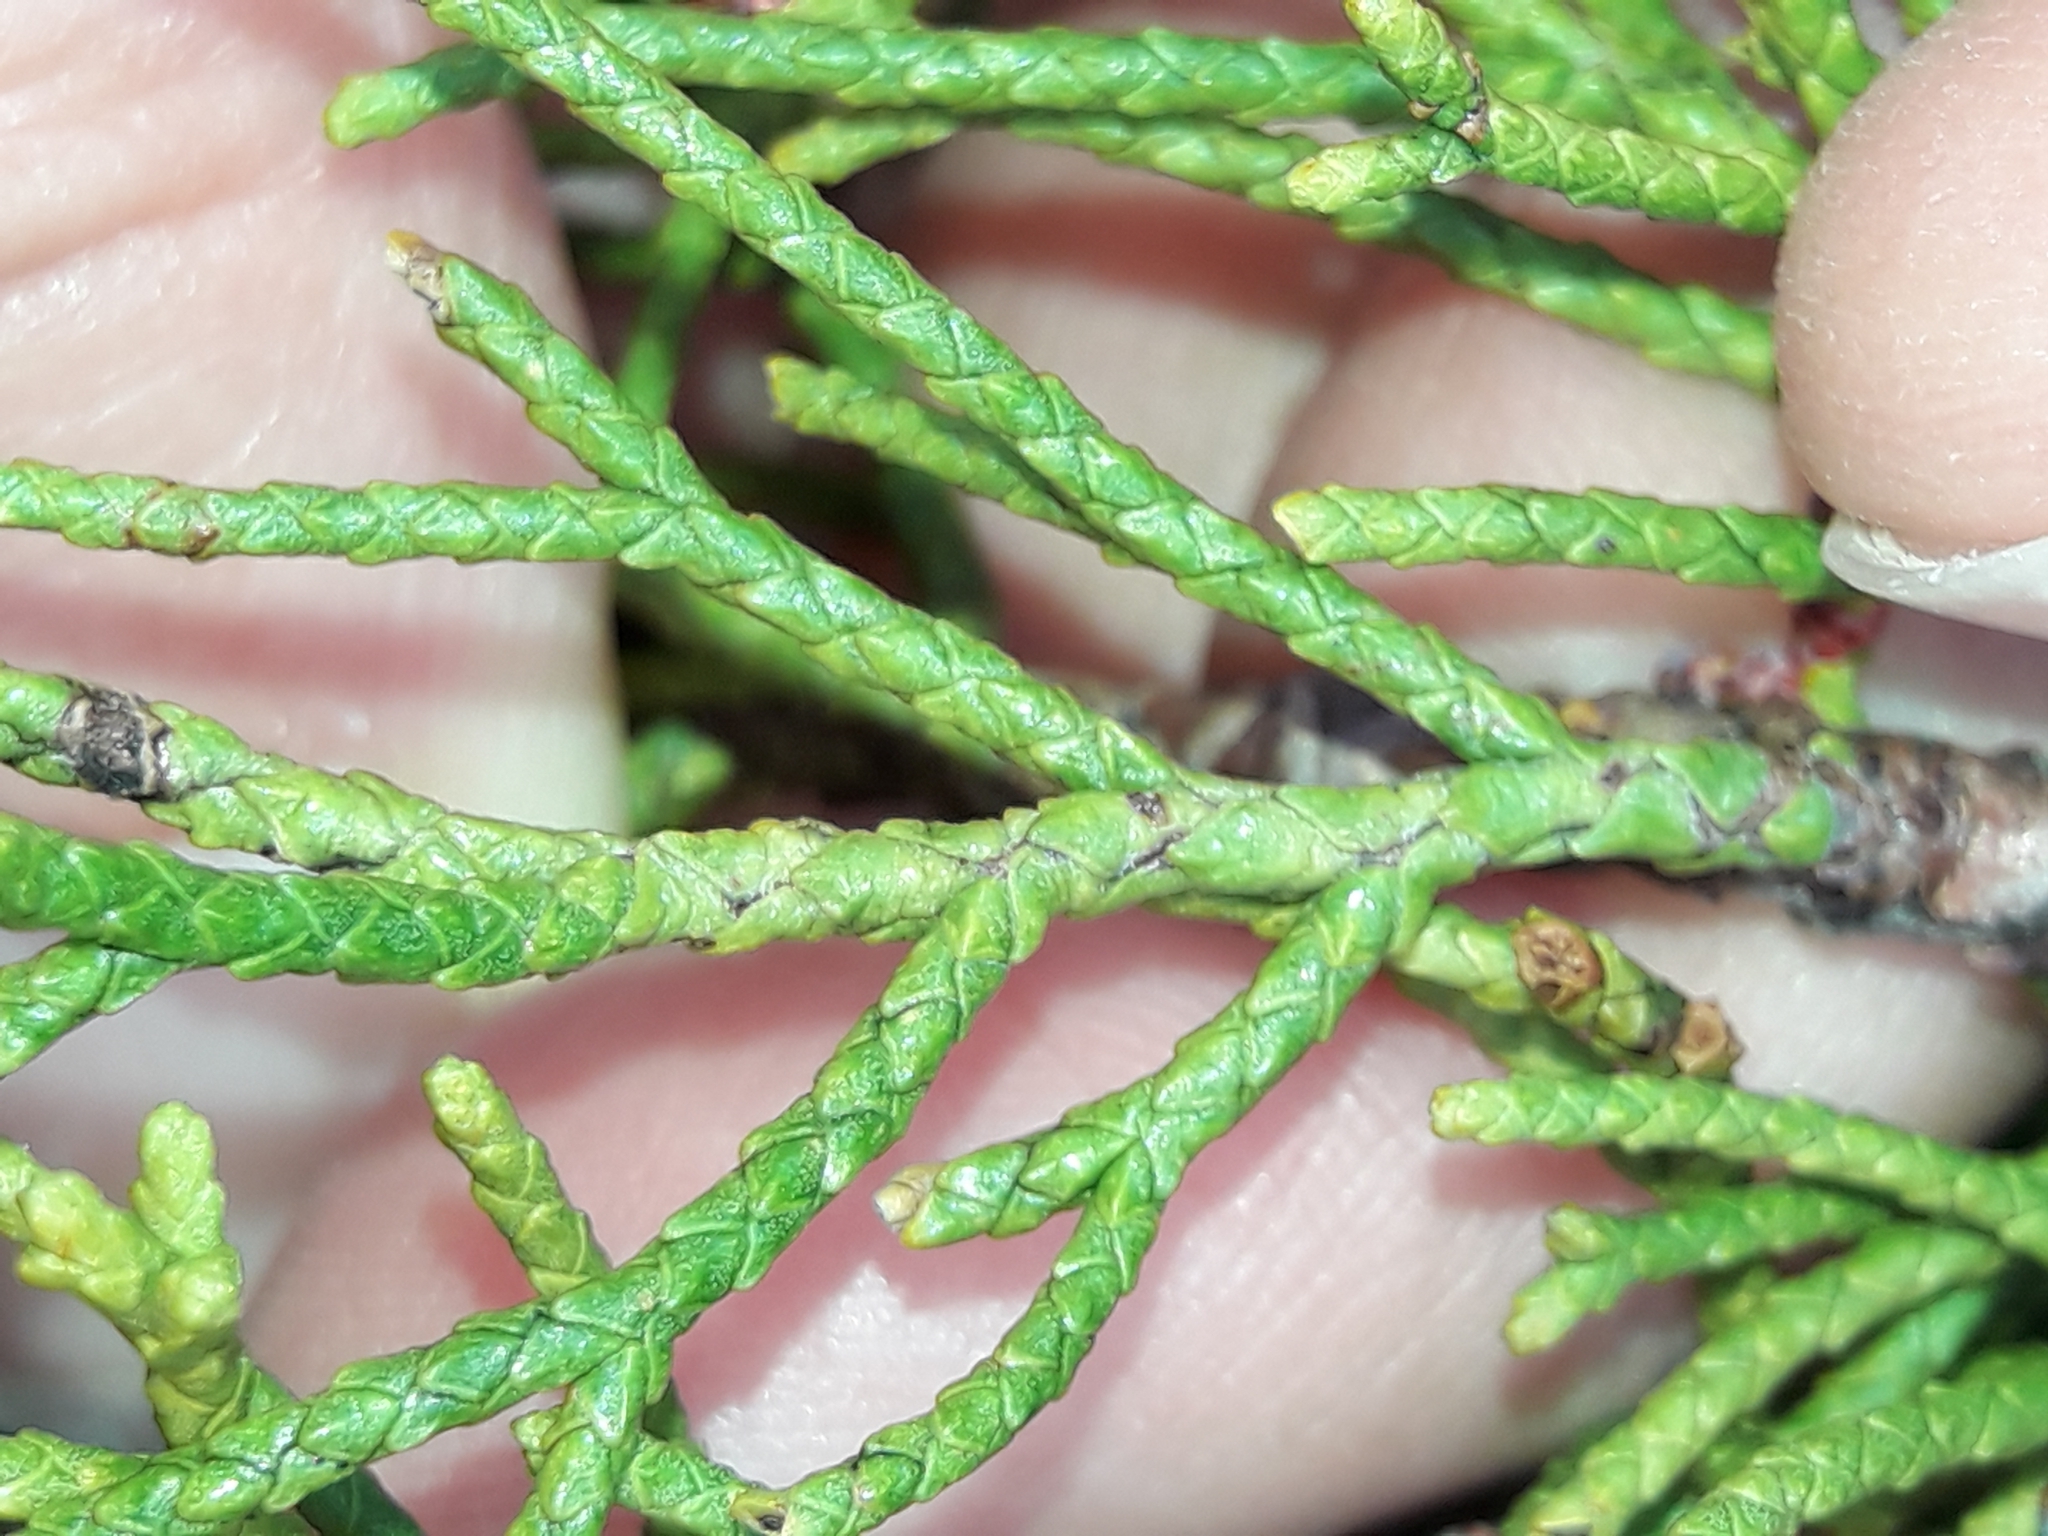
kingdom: Plantae
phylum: Tracheophyta
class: Pinopsida
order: Pinales
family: Podocarpaceae
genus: Halocarpus
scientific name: Halocarpus bidwillii
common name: Bog pine
